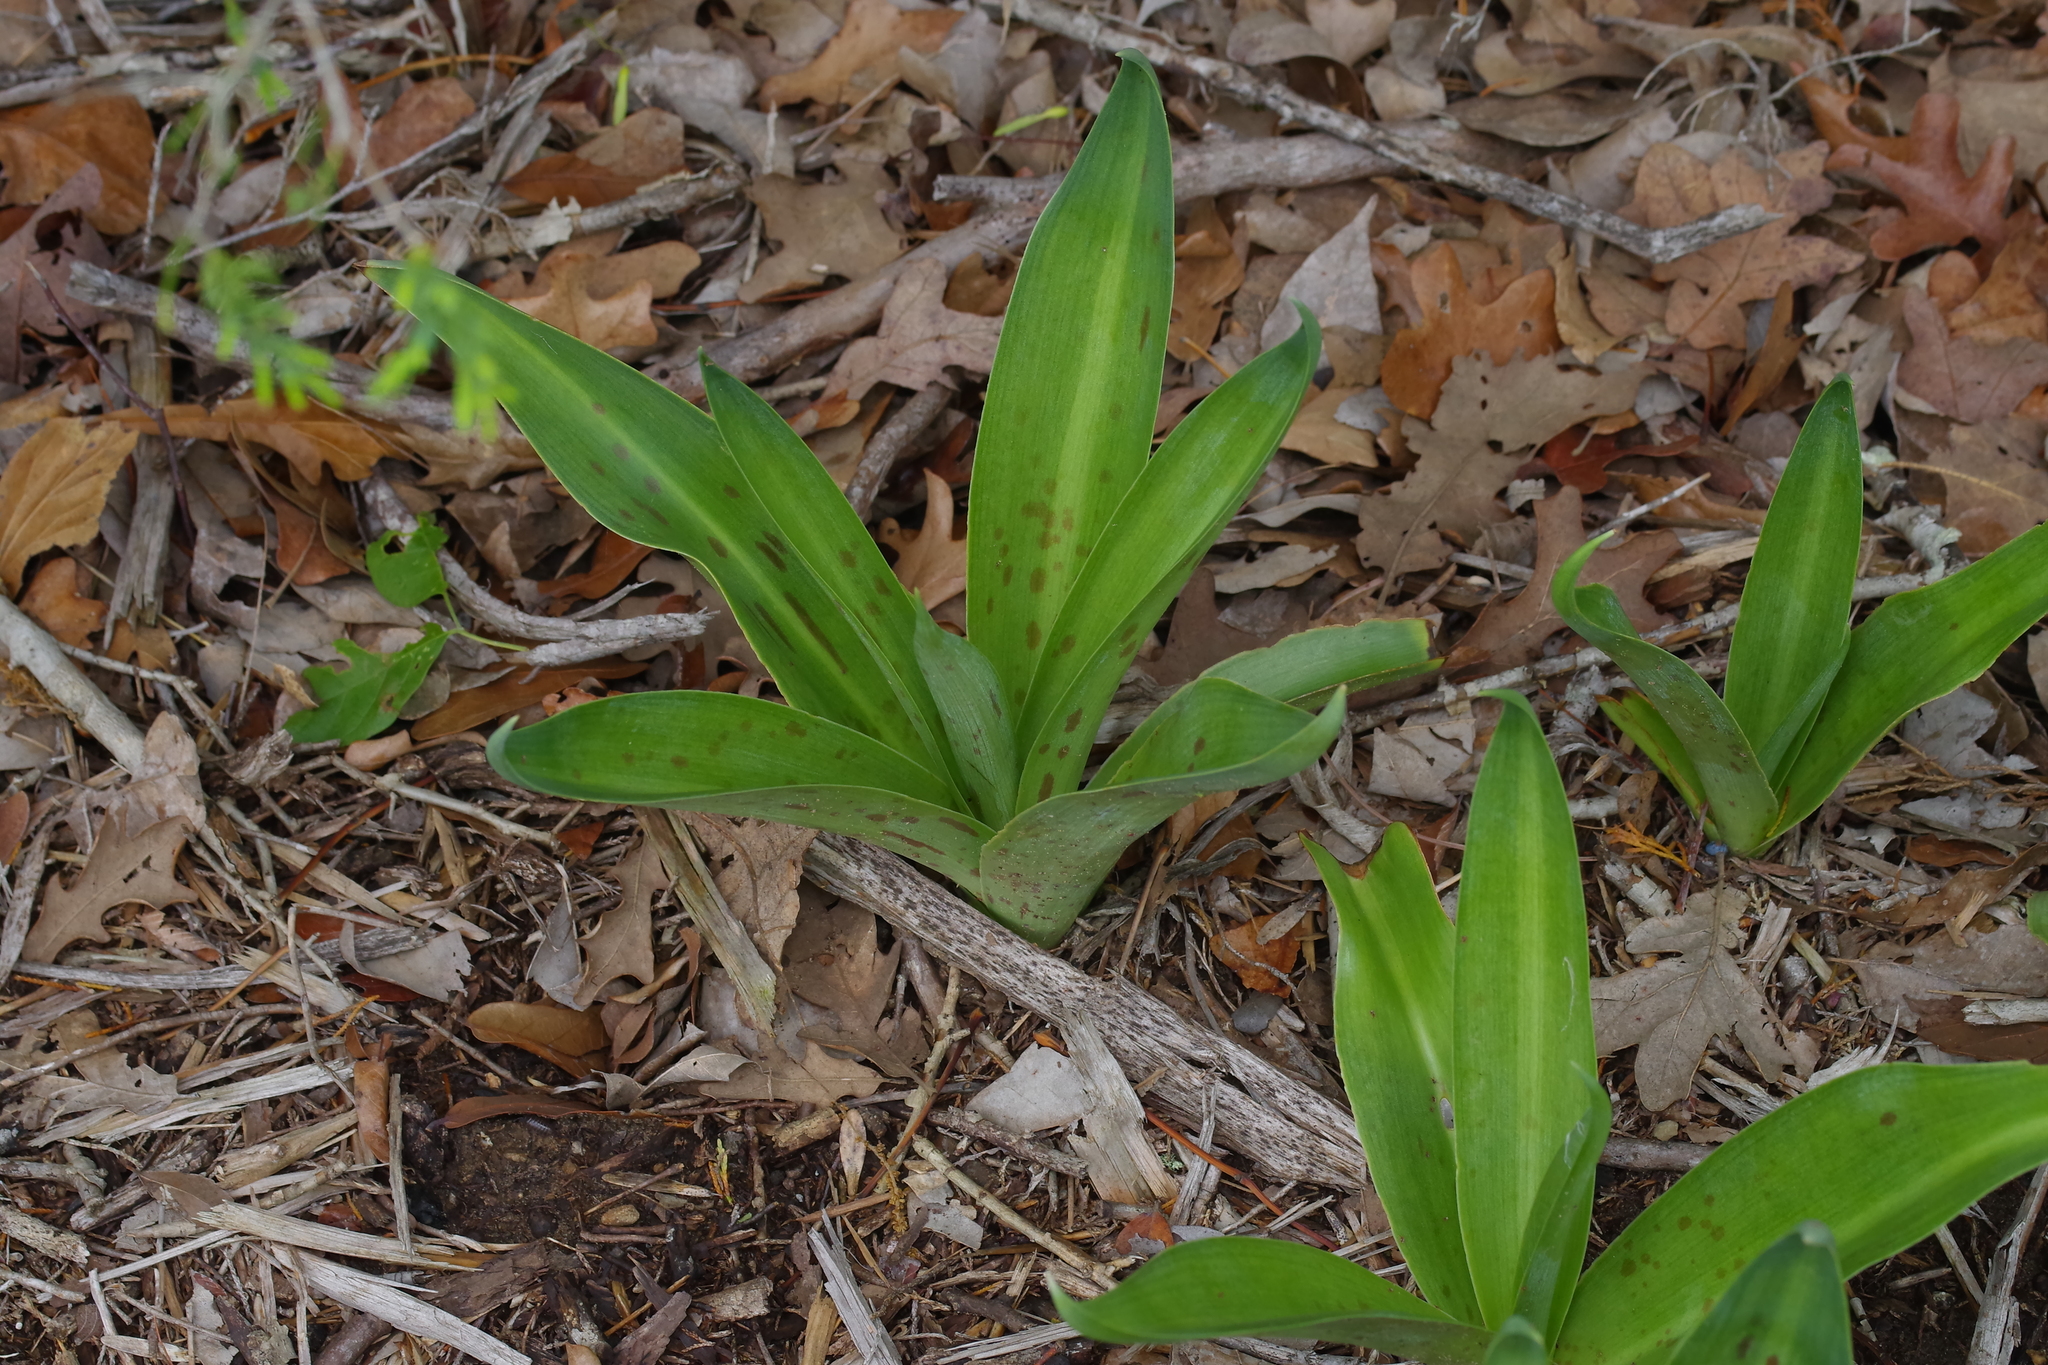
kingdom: Plantae
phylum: Tracheophyta
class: Liliopsida
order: Asparagales
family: Asparagaceae
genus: Agave
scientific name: Agave virginica
